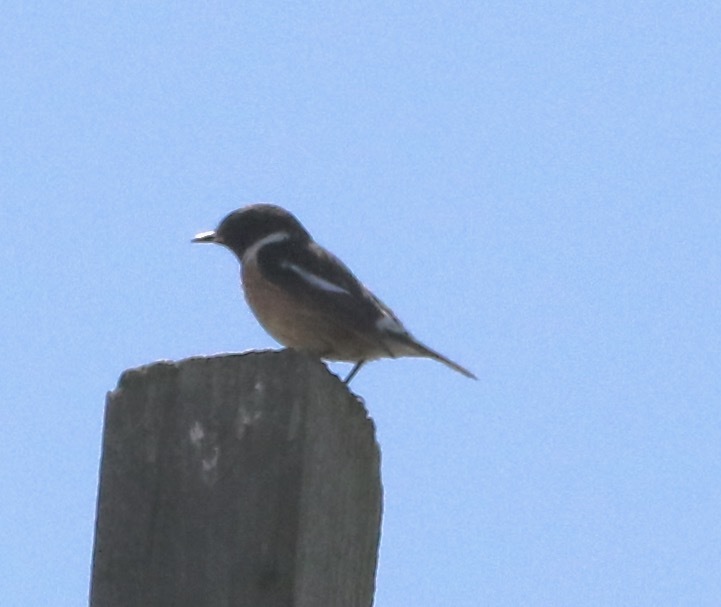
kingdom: Animalia
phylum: Chordata
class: Aves
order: Passeriformes
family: Muscicapidae
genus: Saxicola
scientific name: Saxicola rubicola
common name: European stonechat
